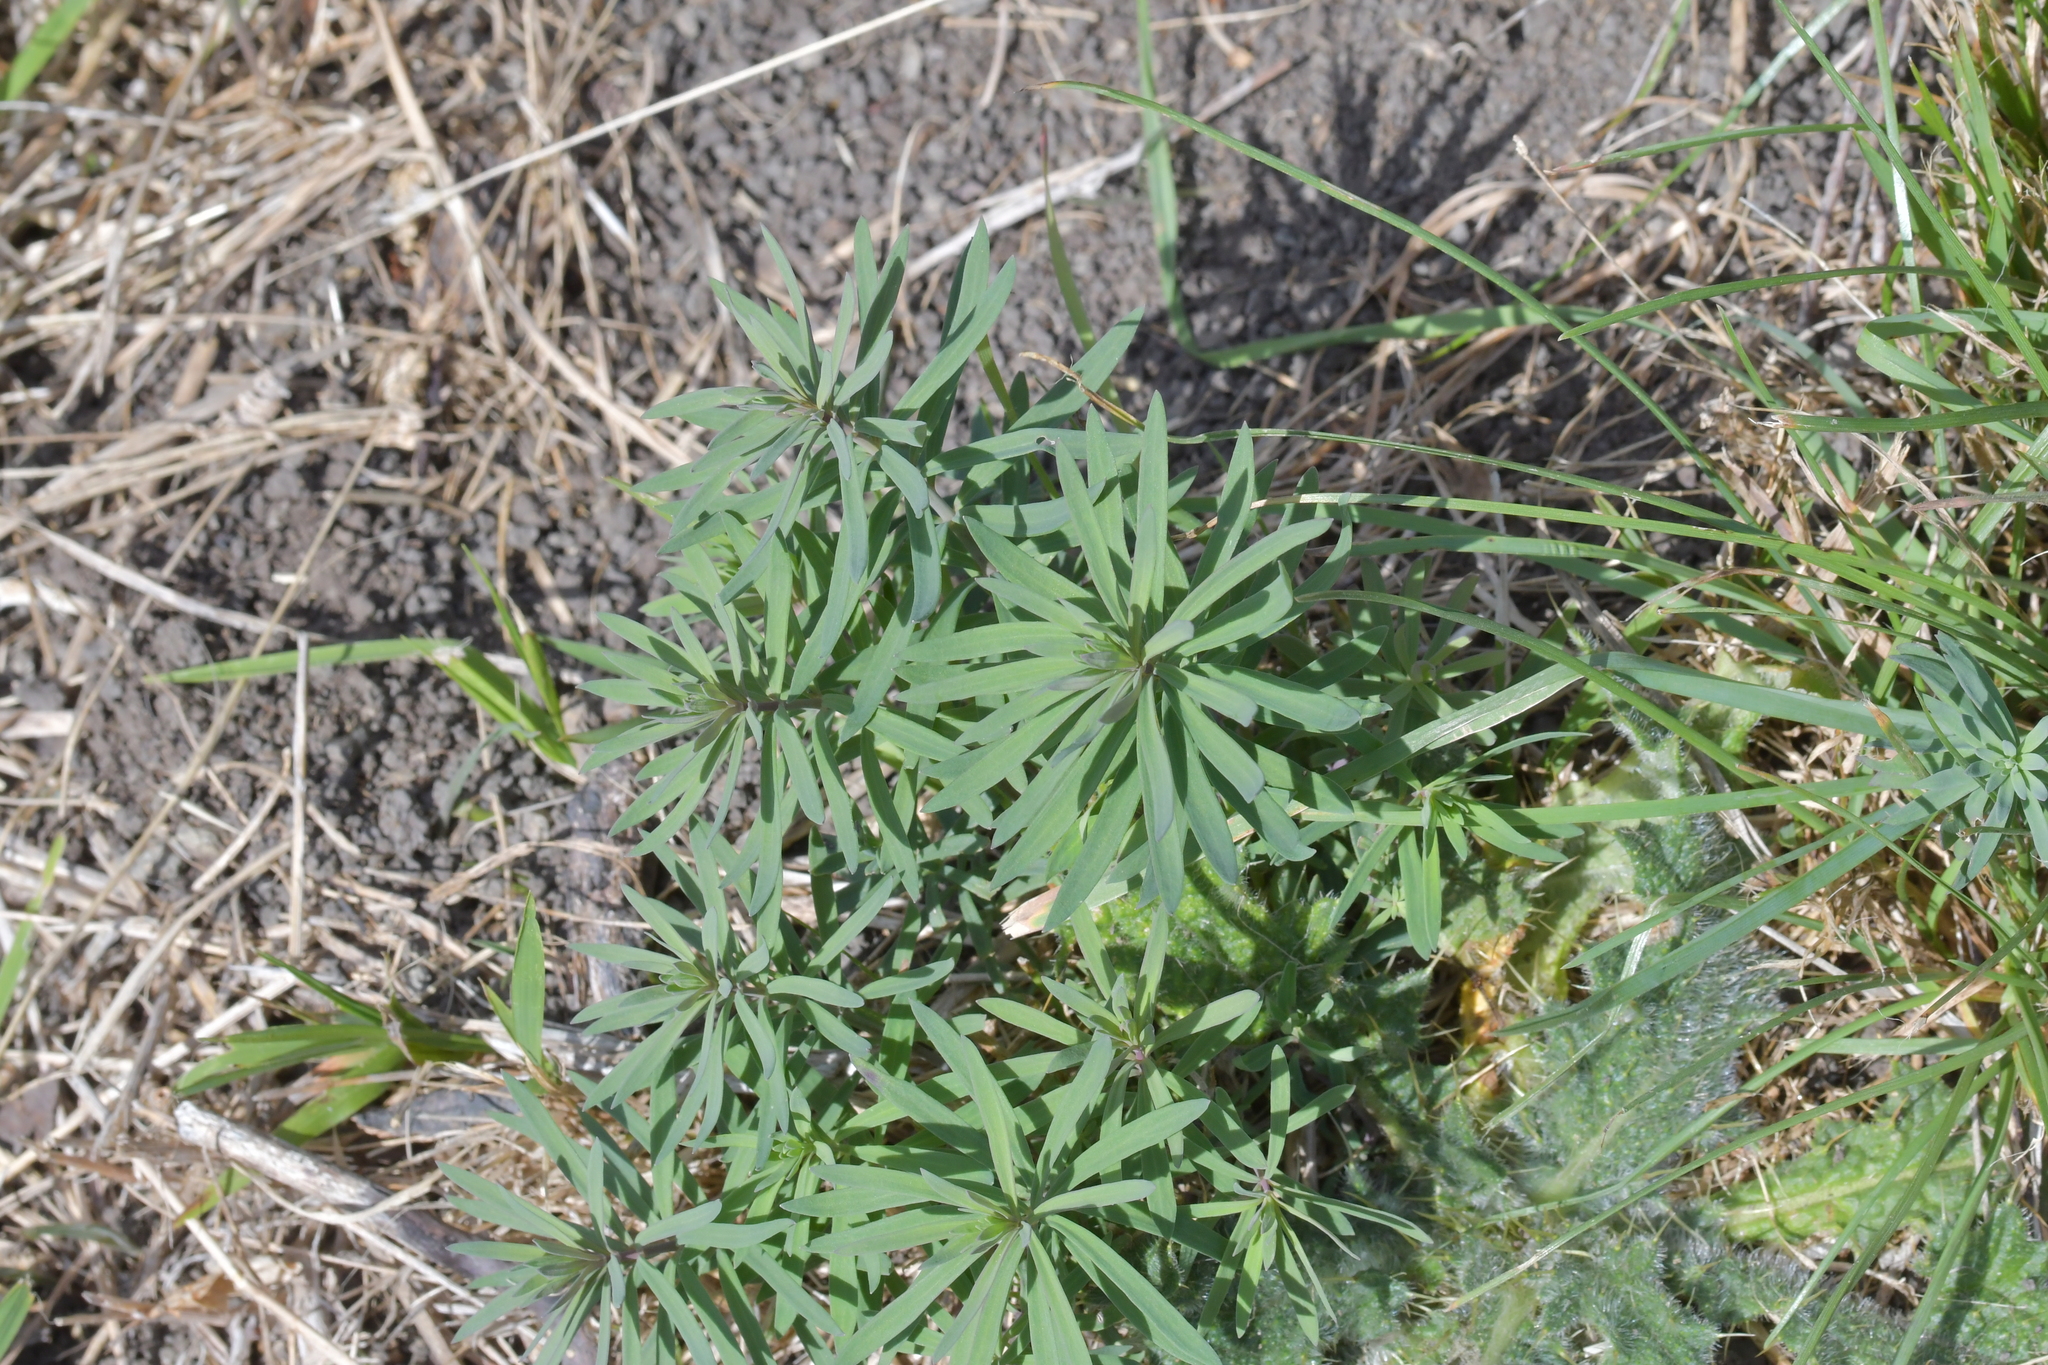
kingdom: Plantae
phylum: Tracheophyta
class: Magnoliopsida
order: Lamiales
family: Plantaginaceae
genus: Linaria
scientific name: Linaria purpurea
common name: Purple toadflax
